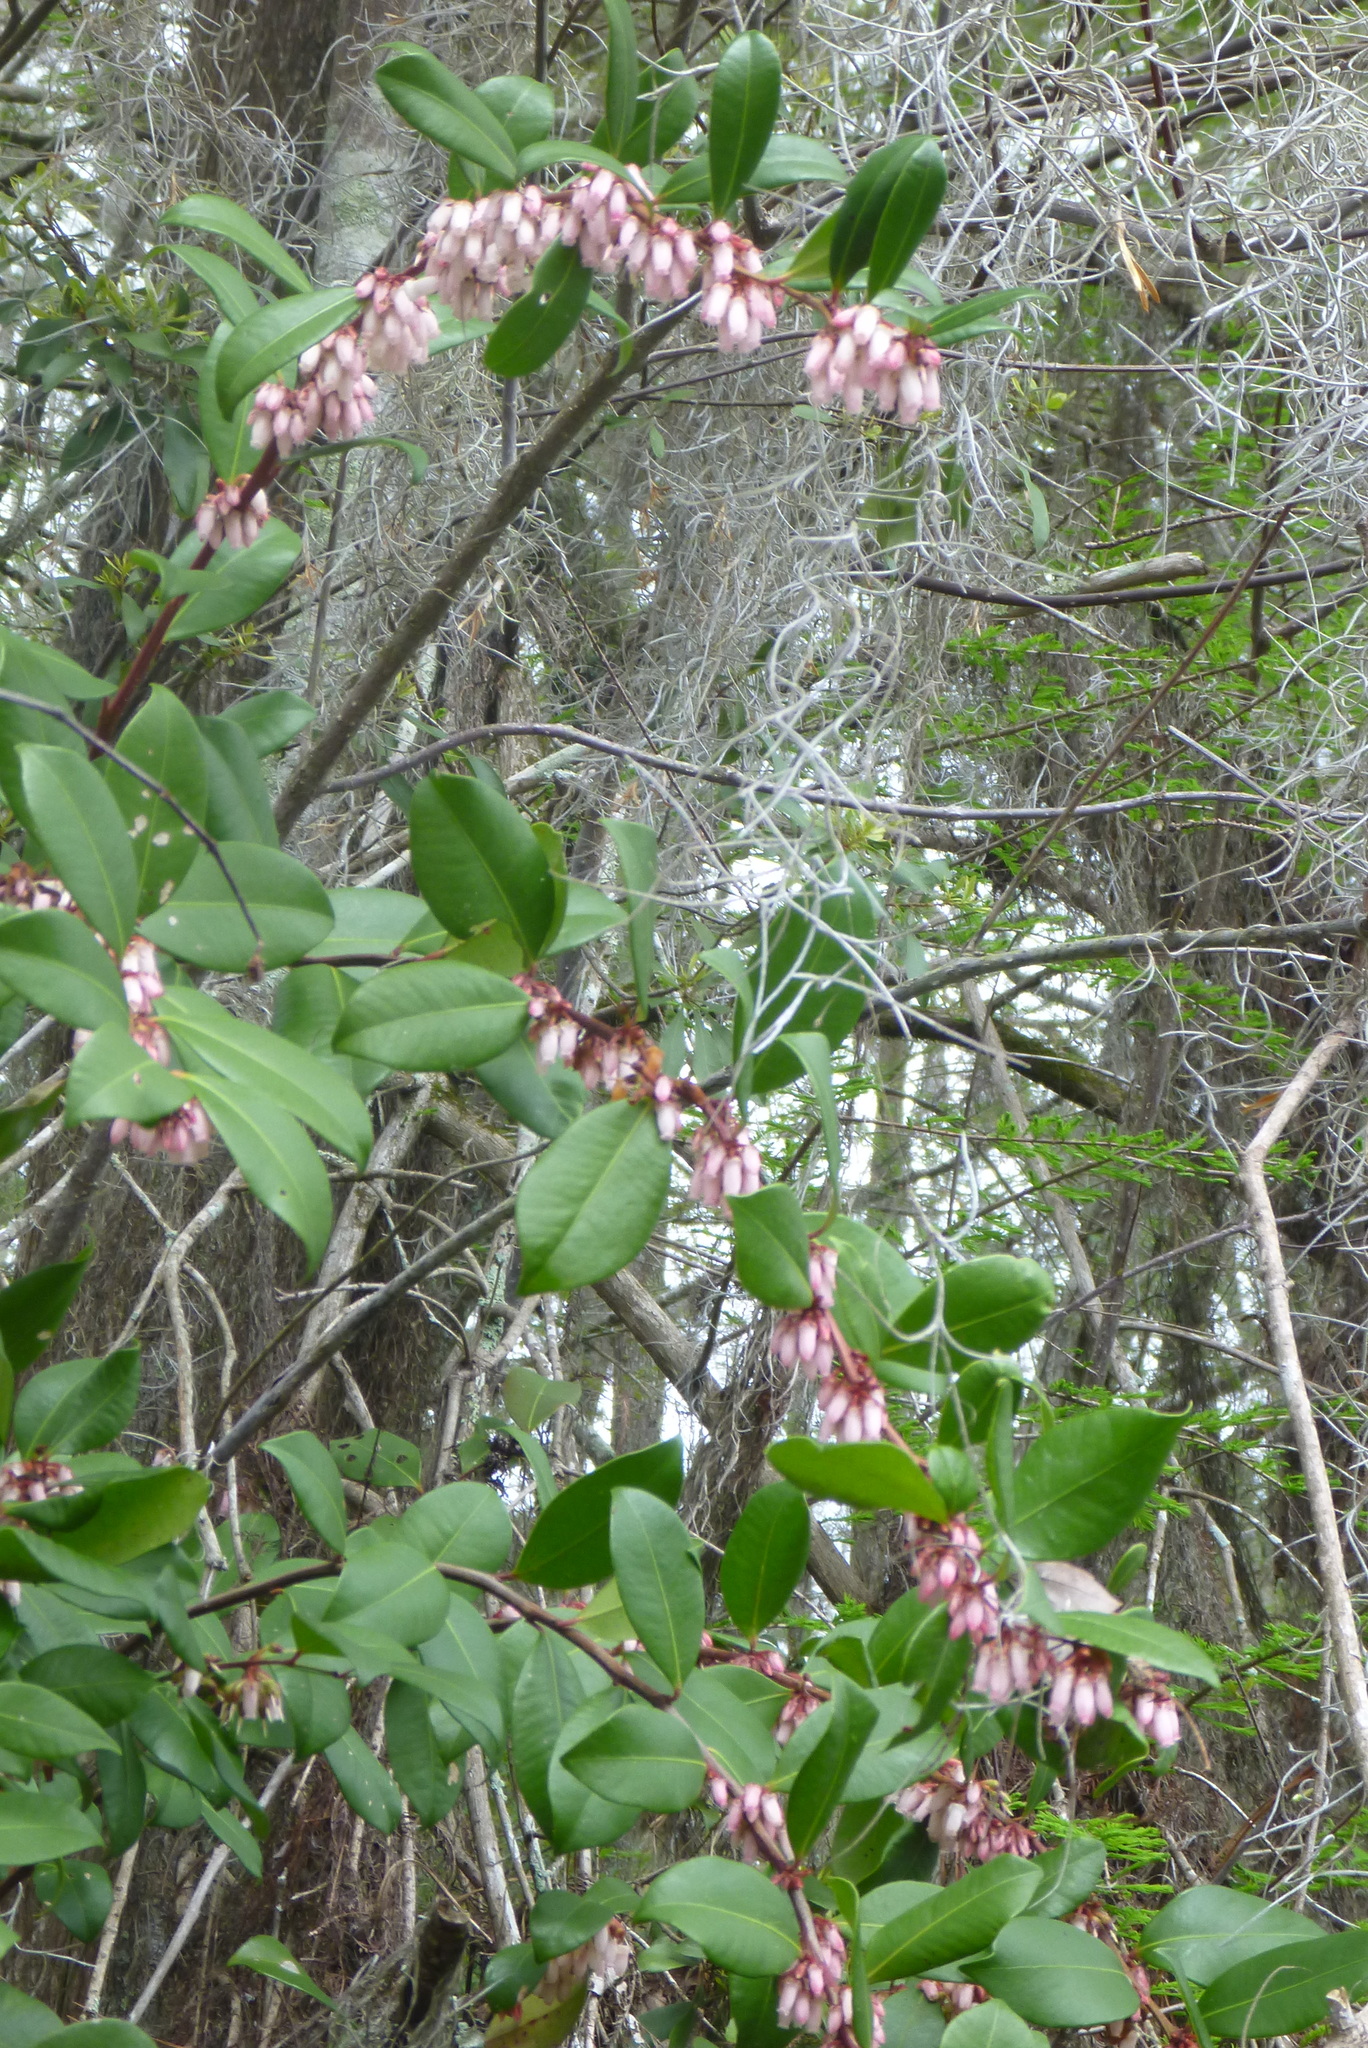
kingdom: Plantae
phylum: Tracheophyta
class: Magnoliopsida
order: Ericales
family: Ericaceae
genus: Lyonia
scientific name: Lyonia lucida
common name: Fetterbush
